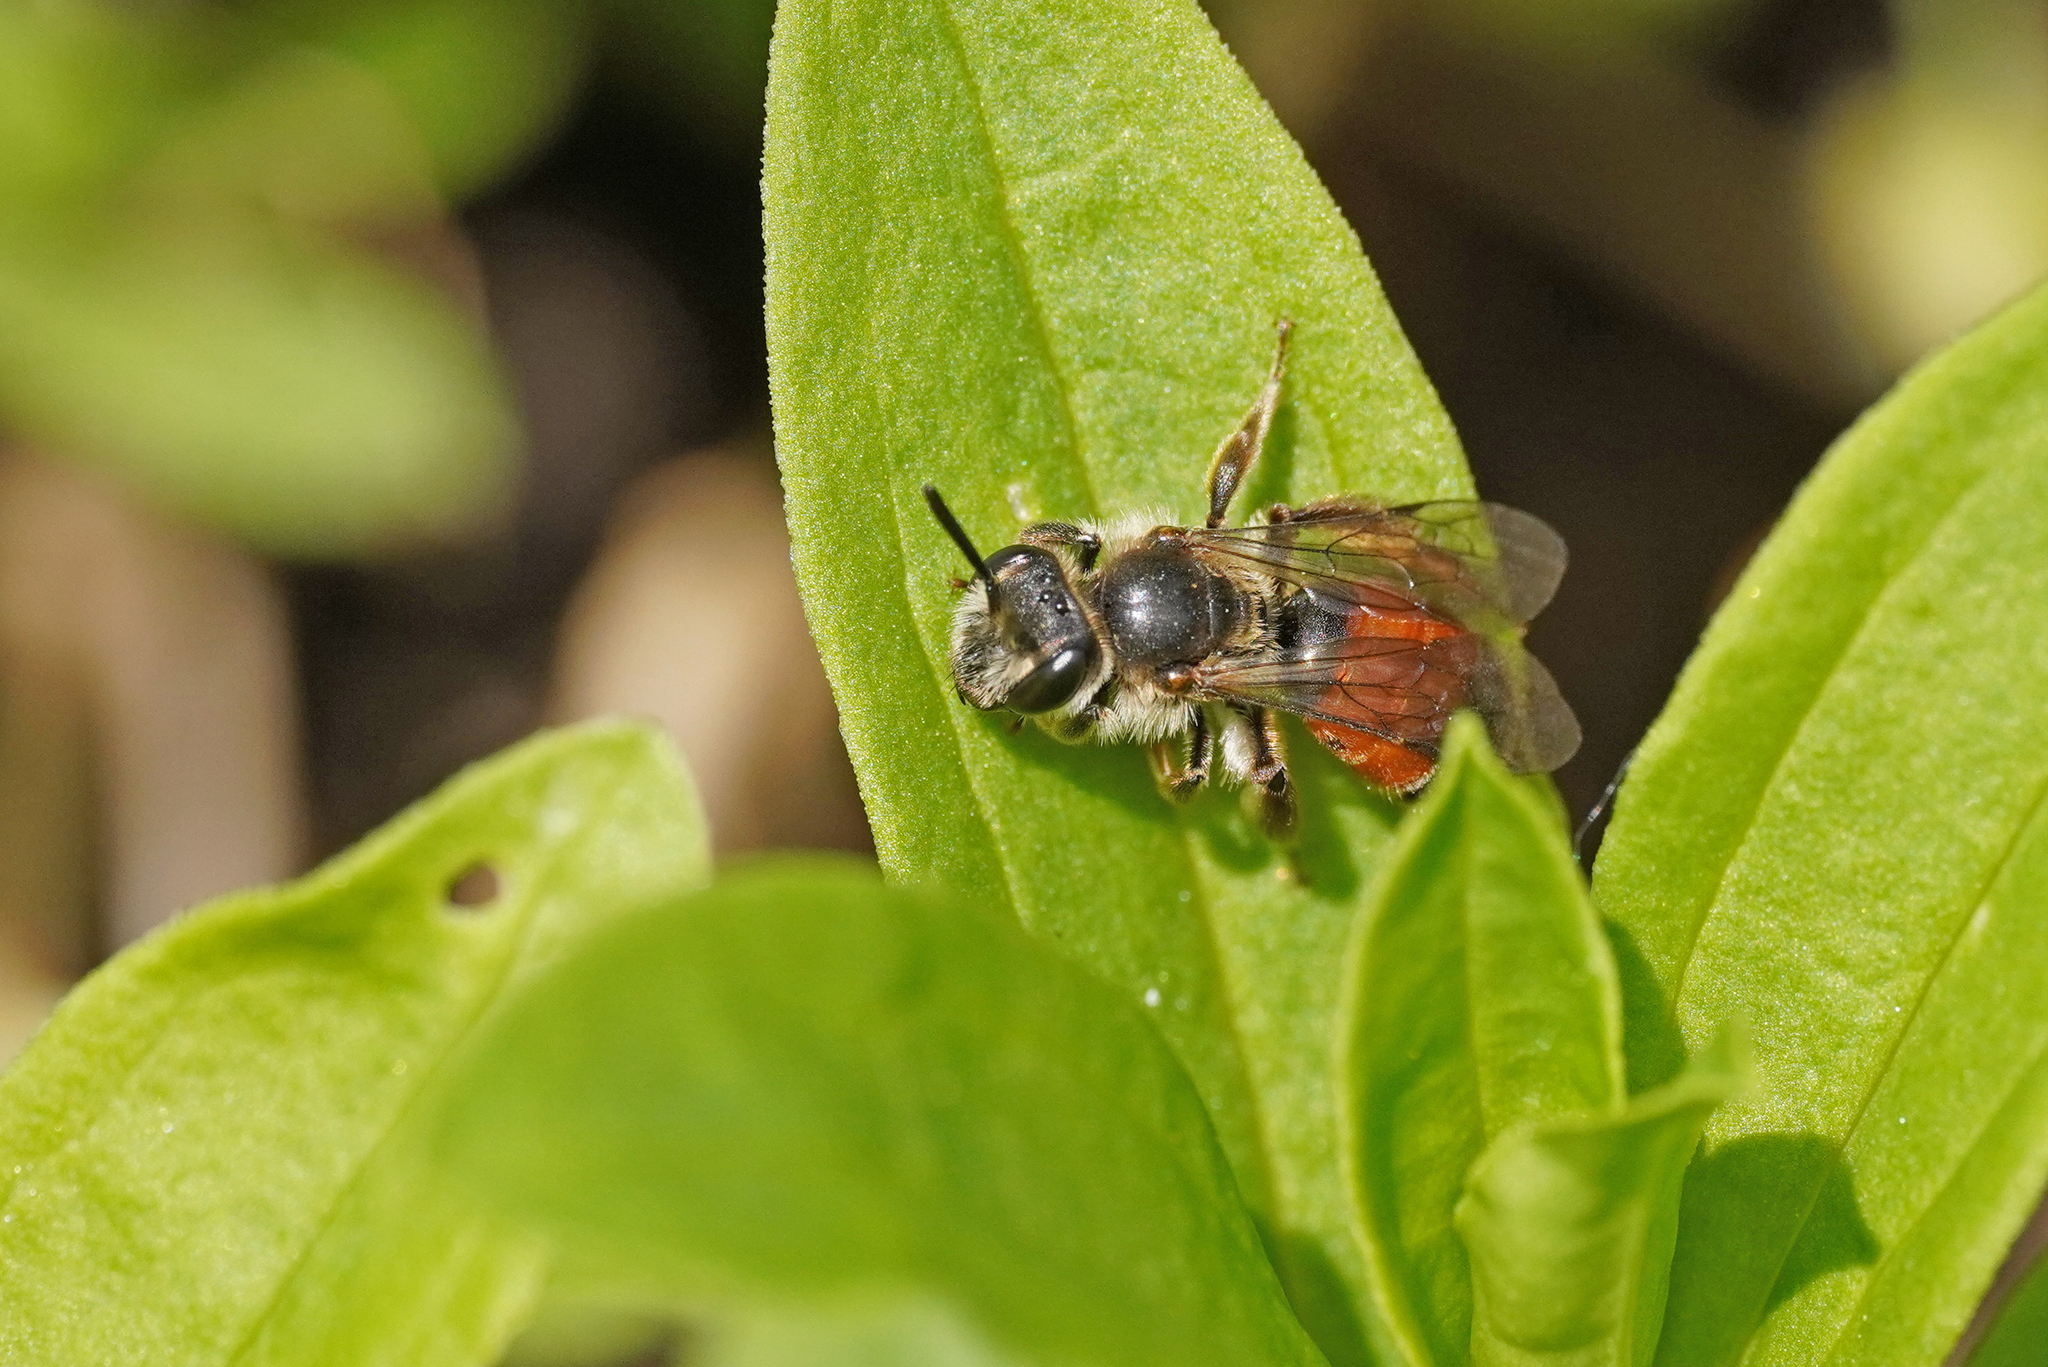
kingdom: Animalia
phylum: Arthropoda
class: Insecta
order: Hymenoptera
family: Andrenidae
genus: Andrena
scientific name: Andrena labiata
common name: Red-girdled mining bee
